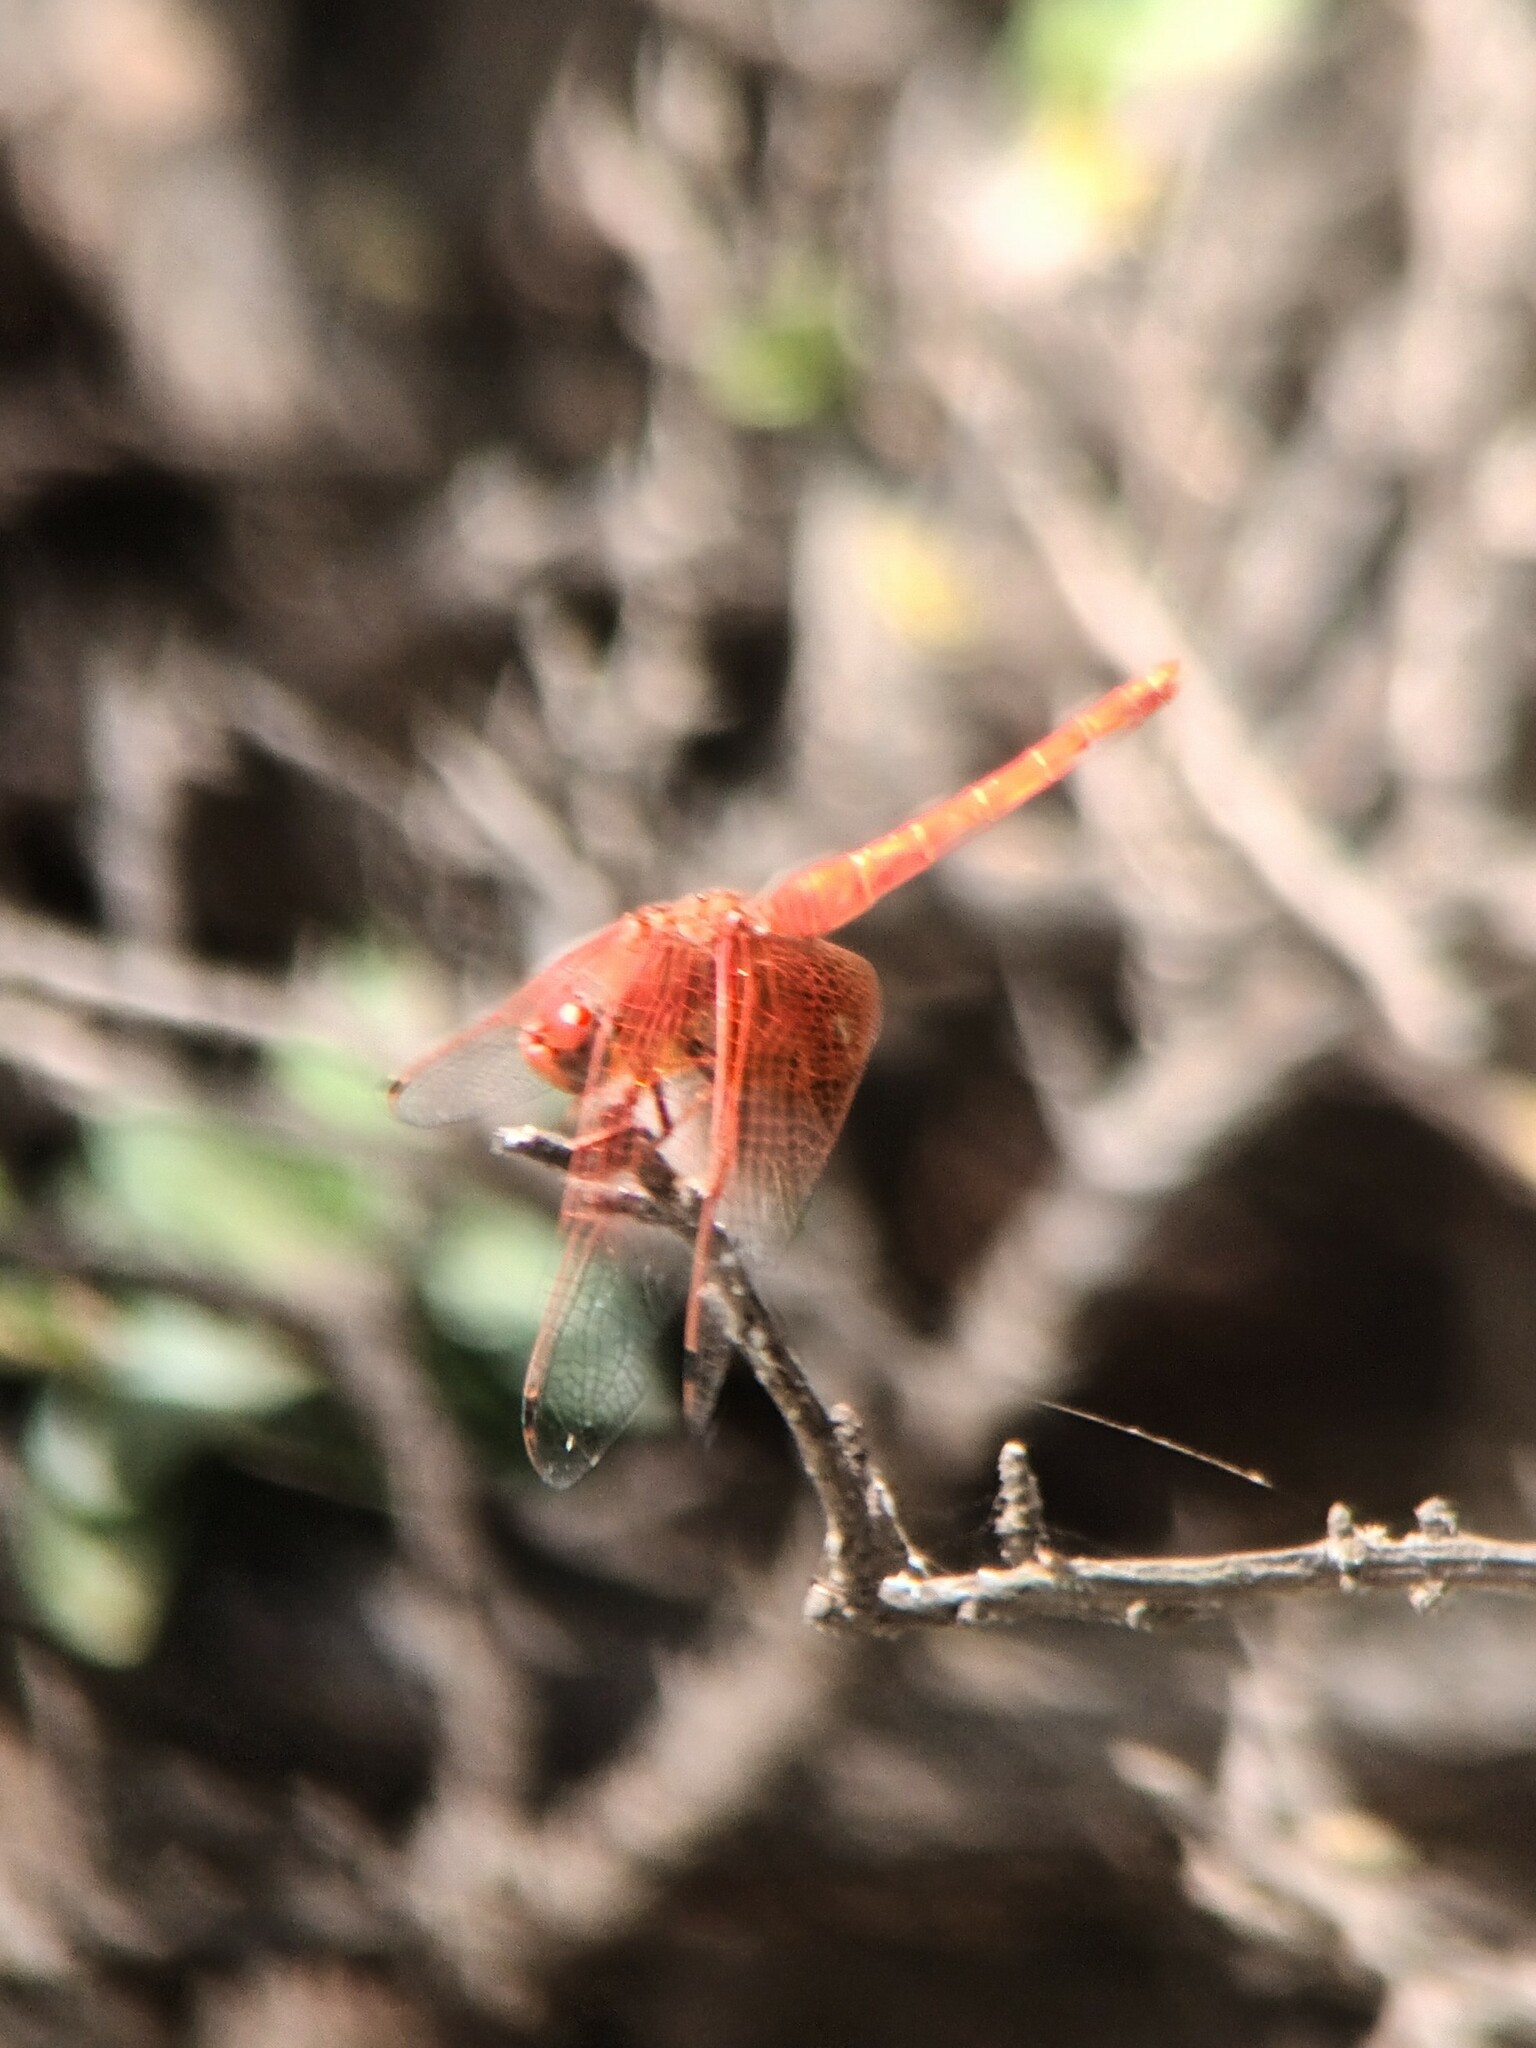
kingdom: Animalia
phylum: Arthropoda
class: Insecta
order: Odonata
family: Libellulidae
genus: Trithemis
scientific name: Trithemis kirbyi
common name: Kirby's dropwing
